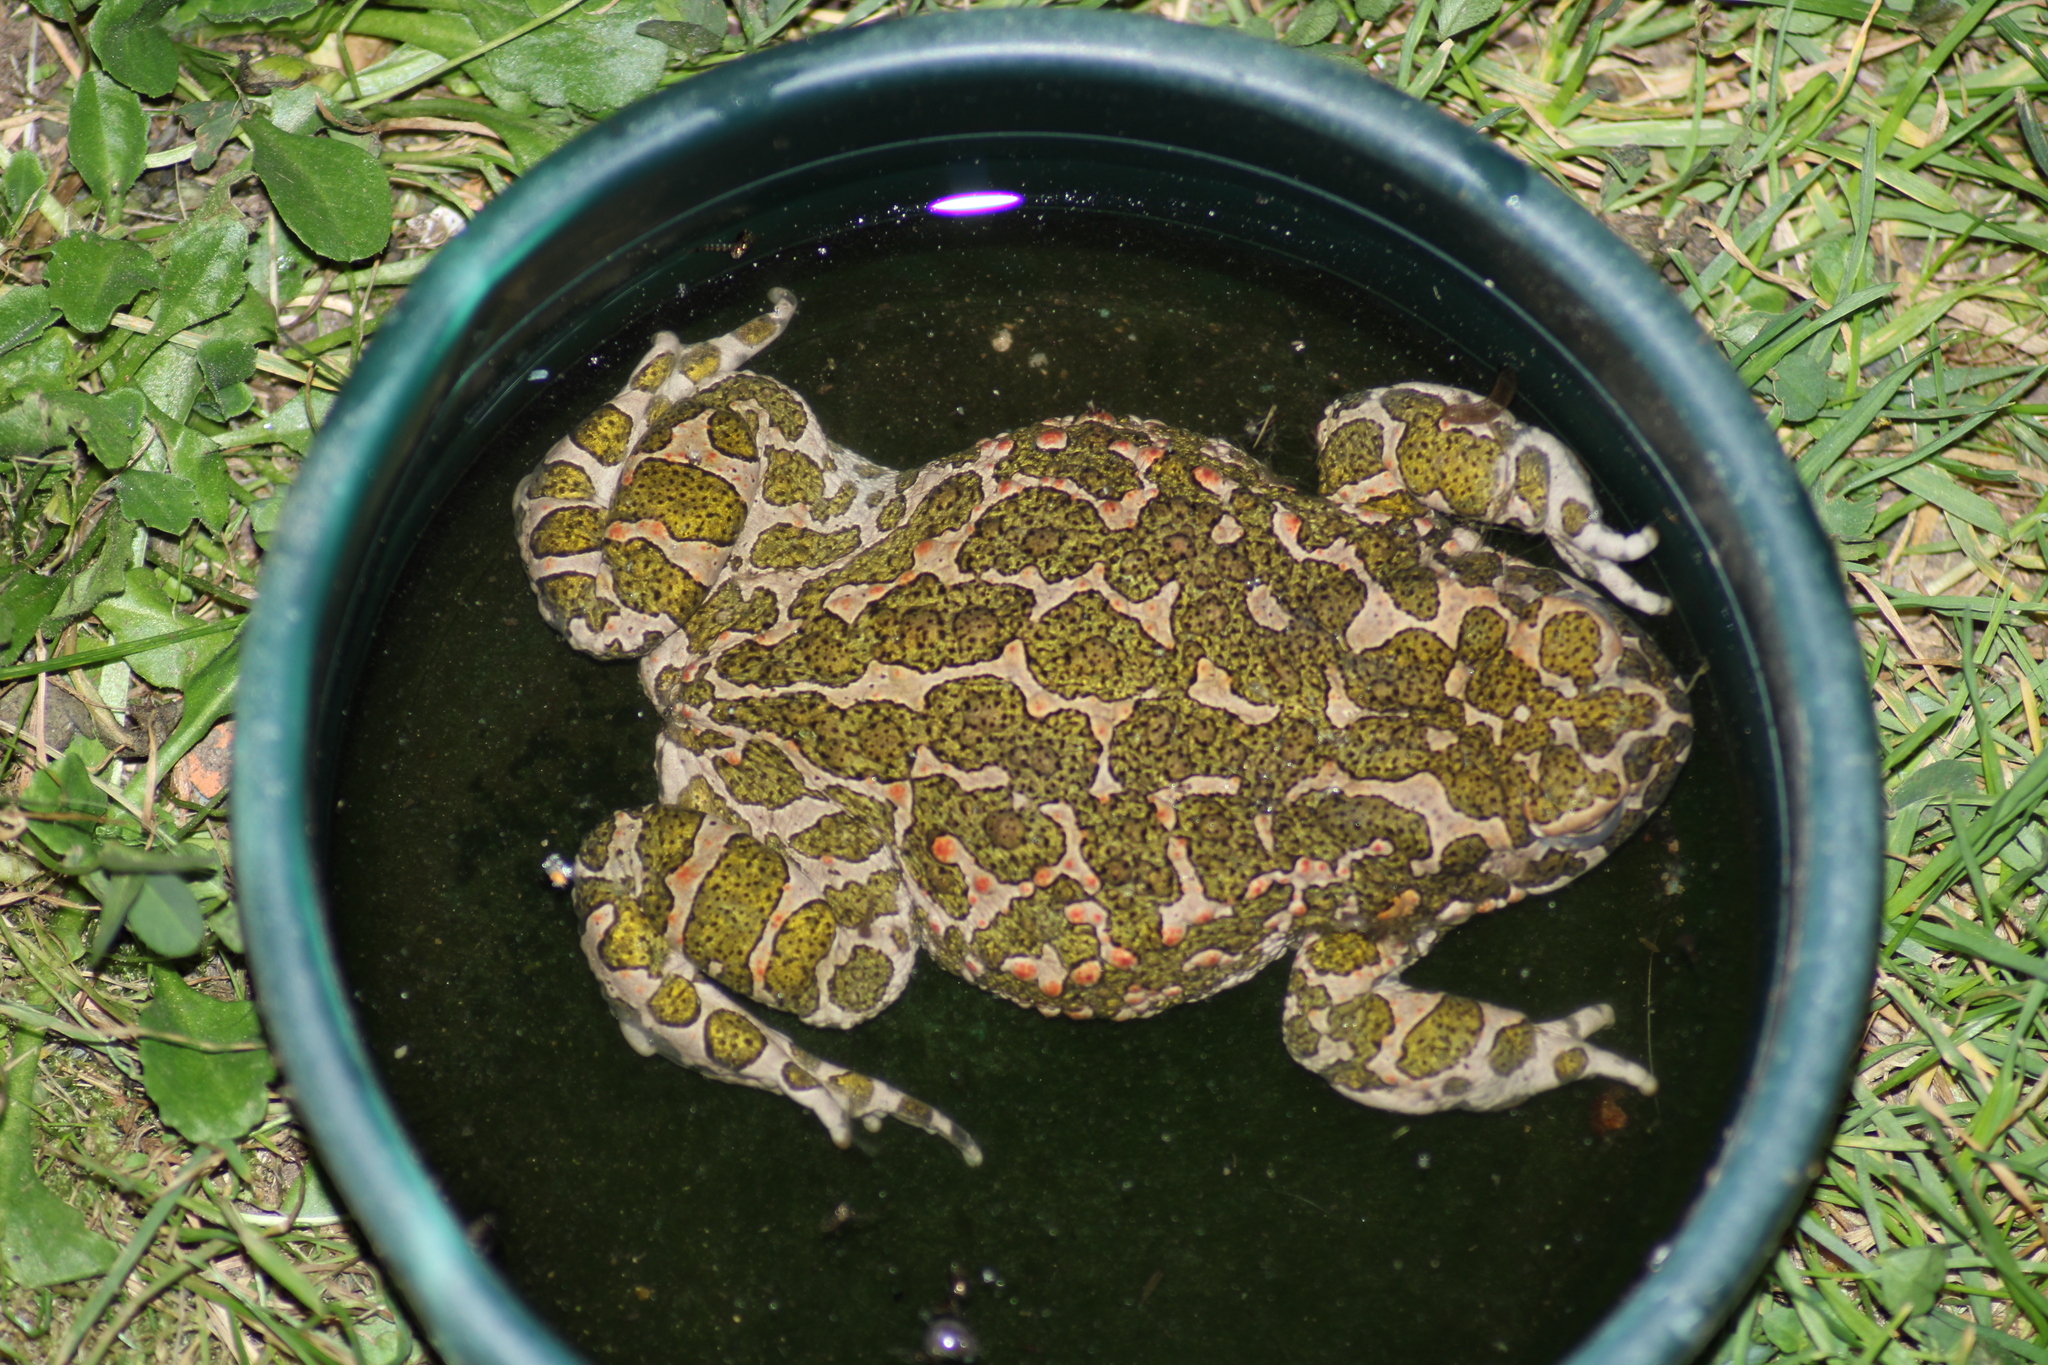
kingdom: Animalia
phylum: Chordata
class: Amphibia
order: Anura
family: Bufonidae
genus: Bufotes
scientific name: Bufotes viridis
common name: European green toad
